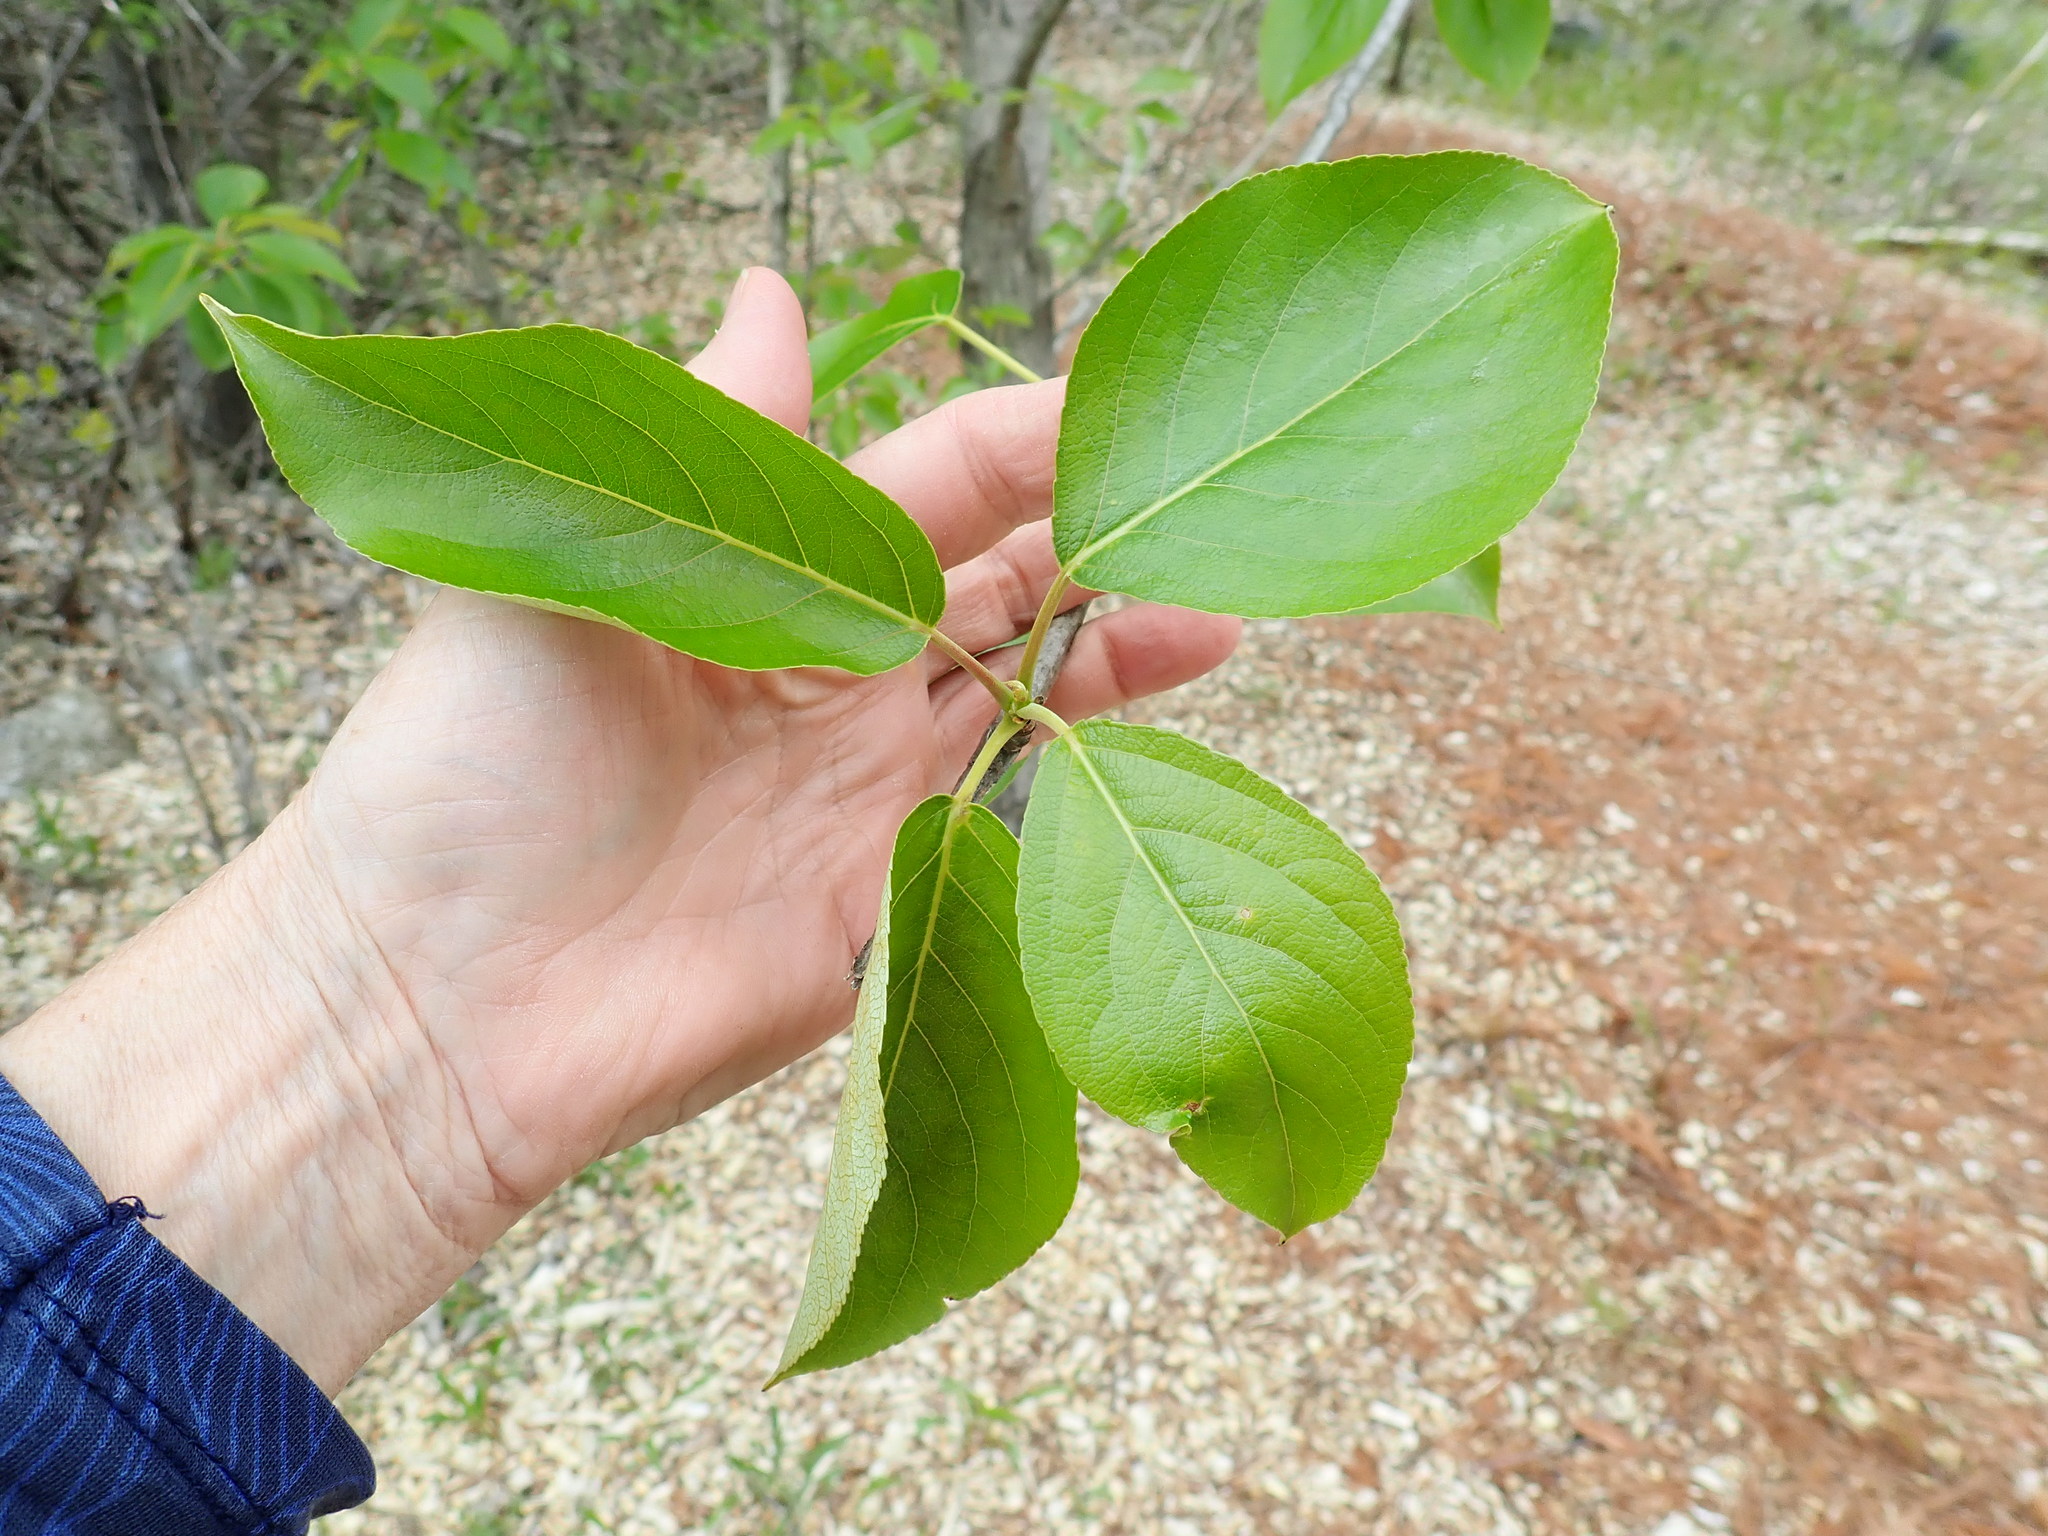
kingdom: Plantae
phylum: Tracheophyta
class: Magnoliopsida
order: Malpighiales
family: Salicaceae
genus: Populus
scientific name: Populus balsamifera
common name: Balsam poplar
